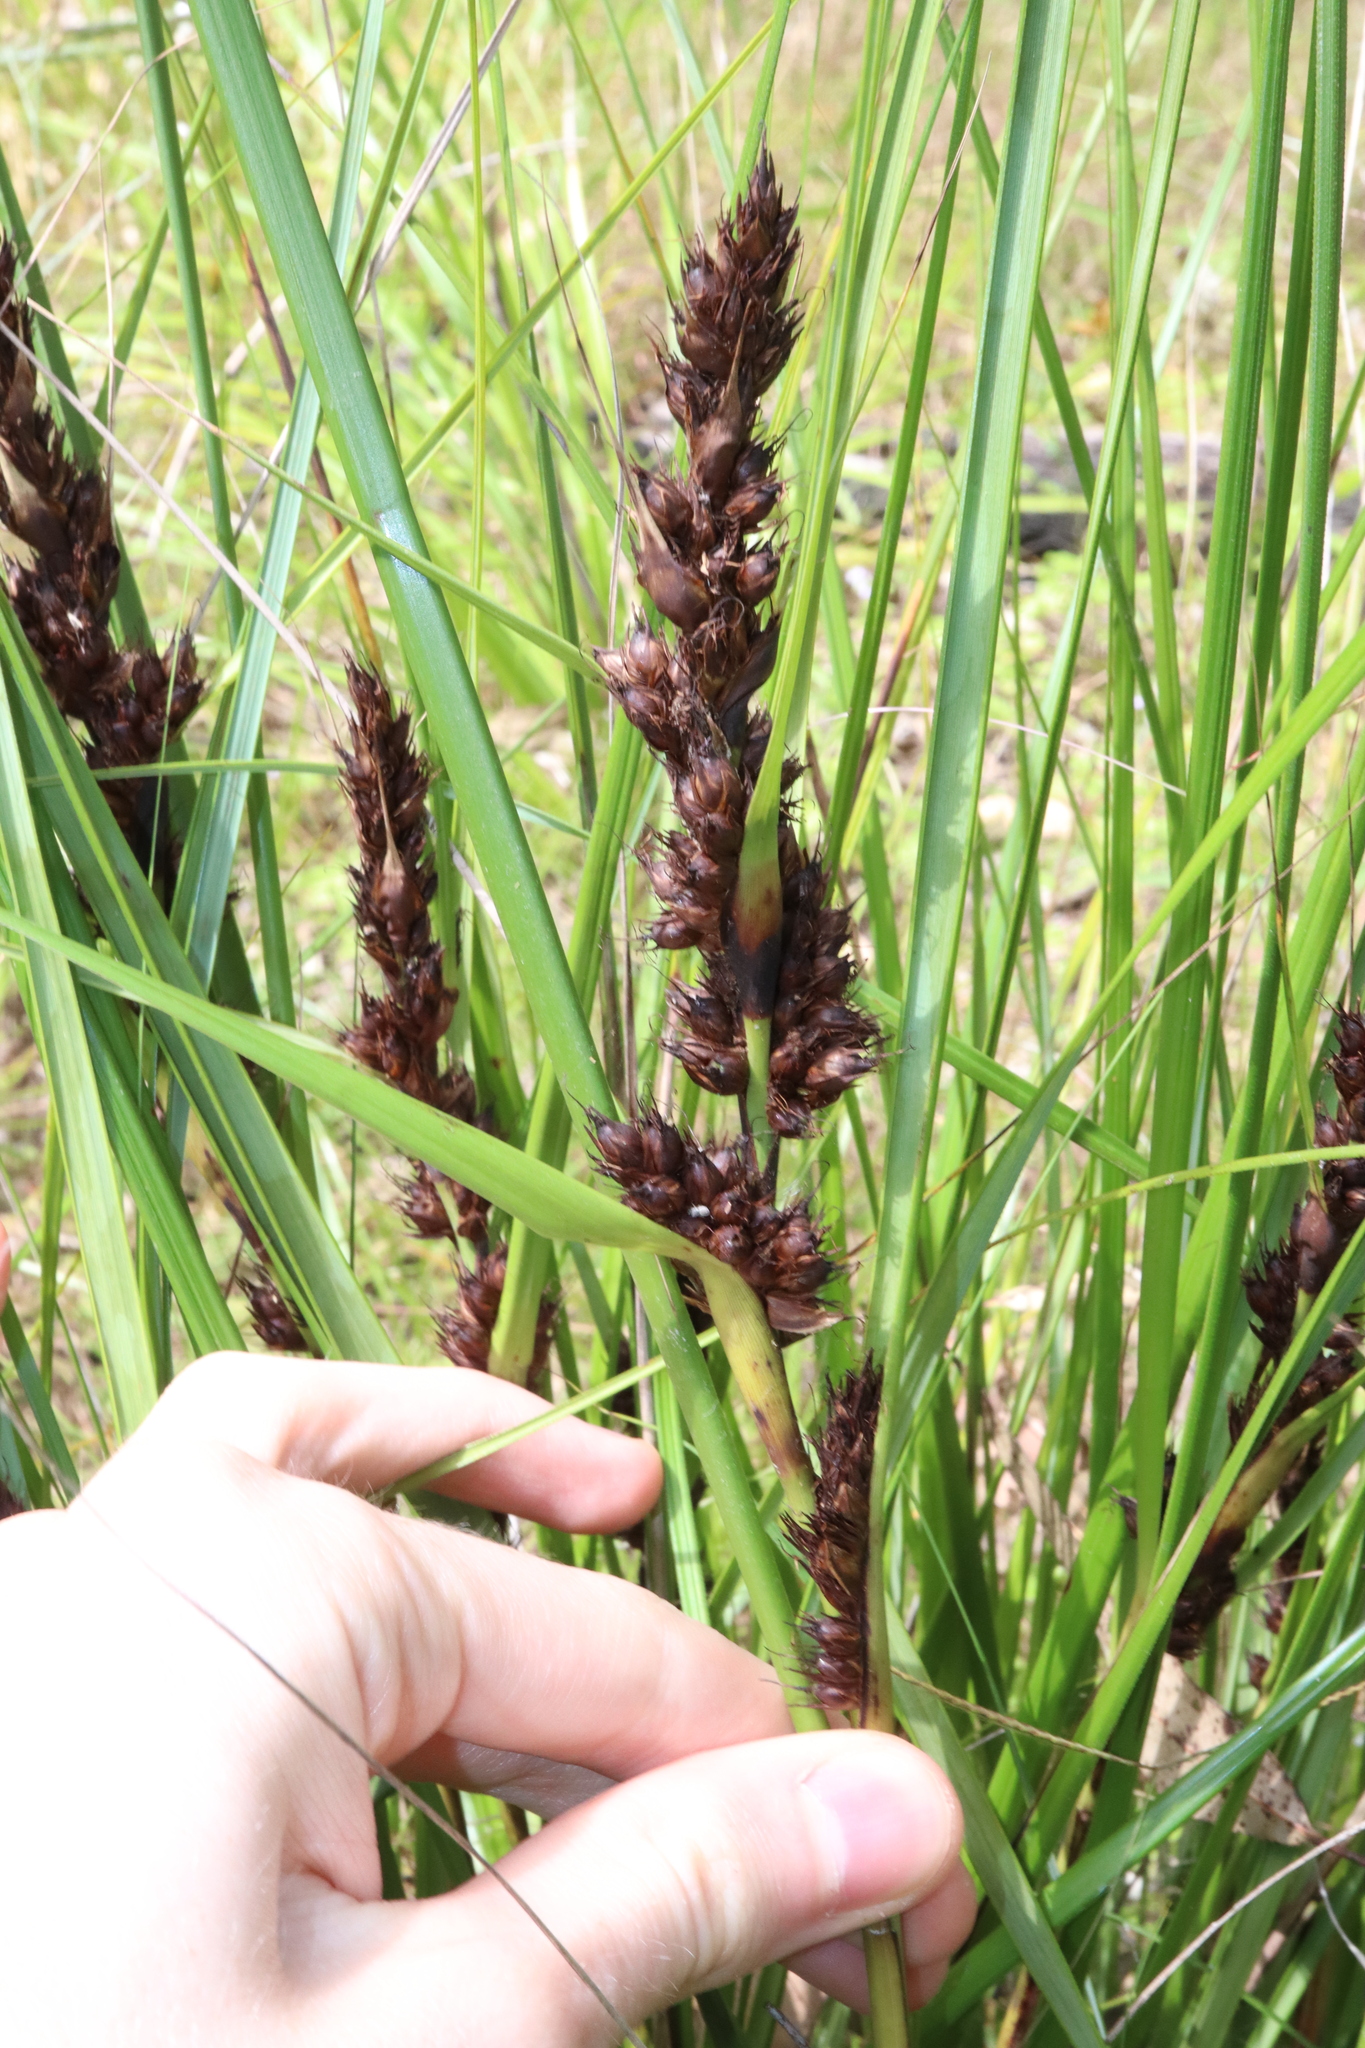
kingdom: Plantae
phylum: Tracheophyta
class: Liliopsida
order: Poales
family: Cyperaceae
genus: Gahnia
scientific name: Gahnia aspera
